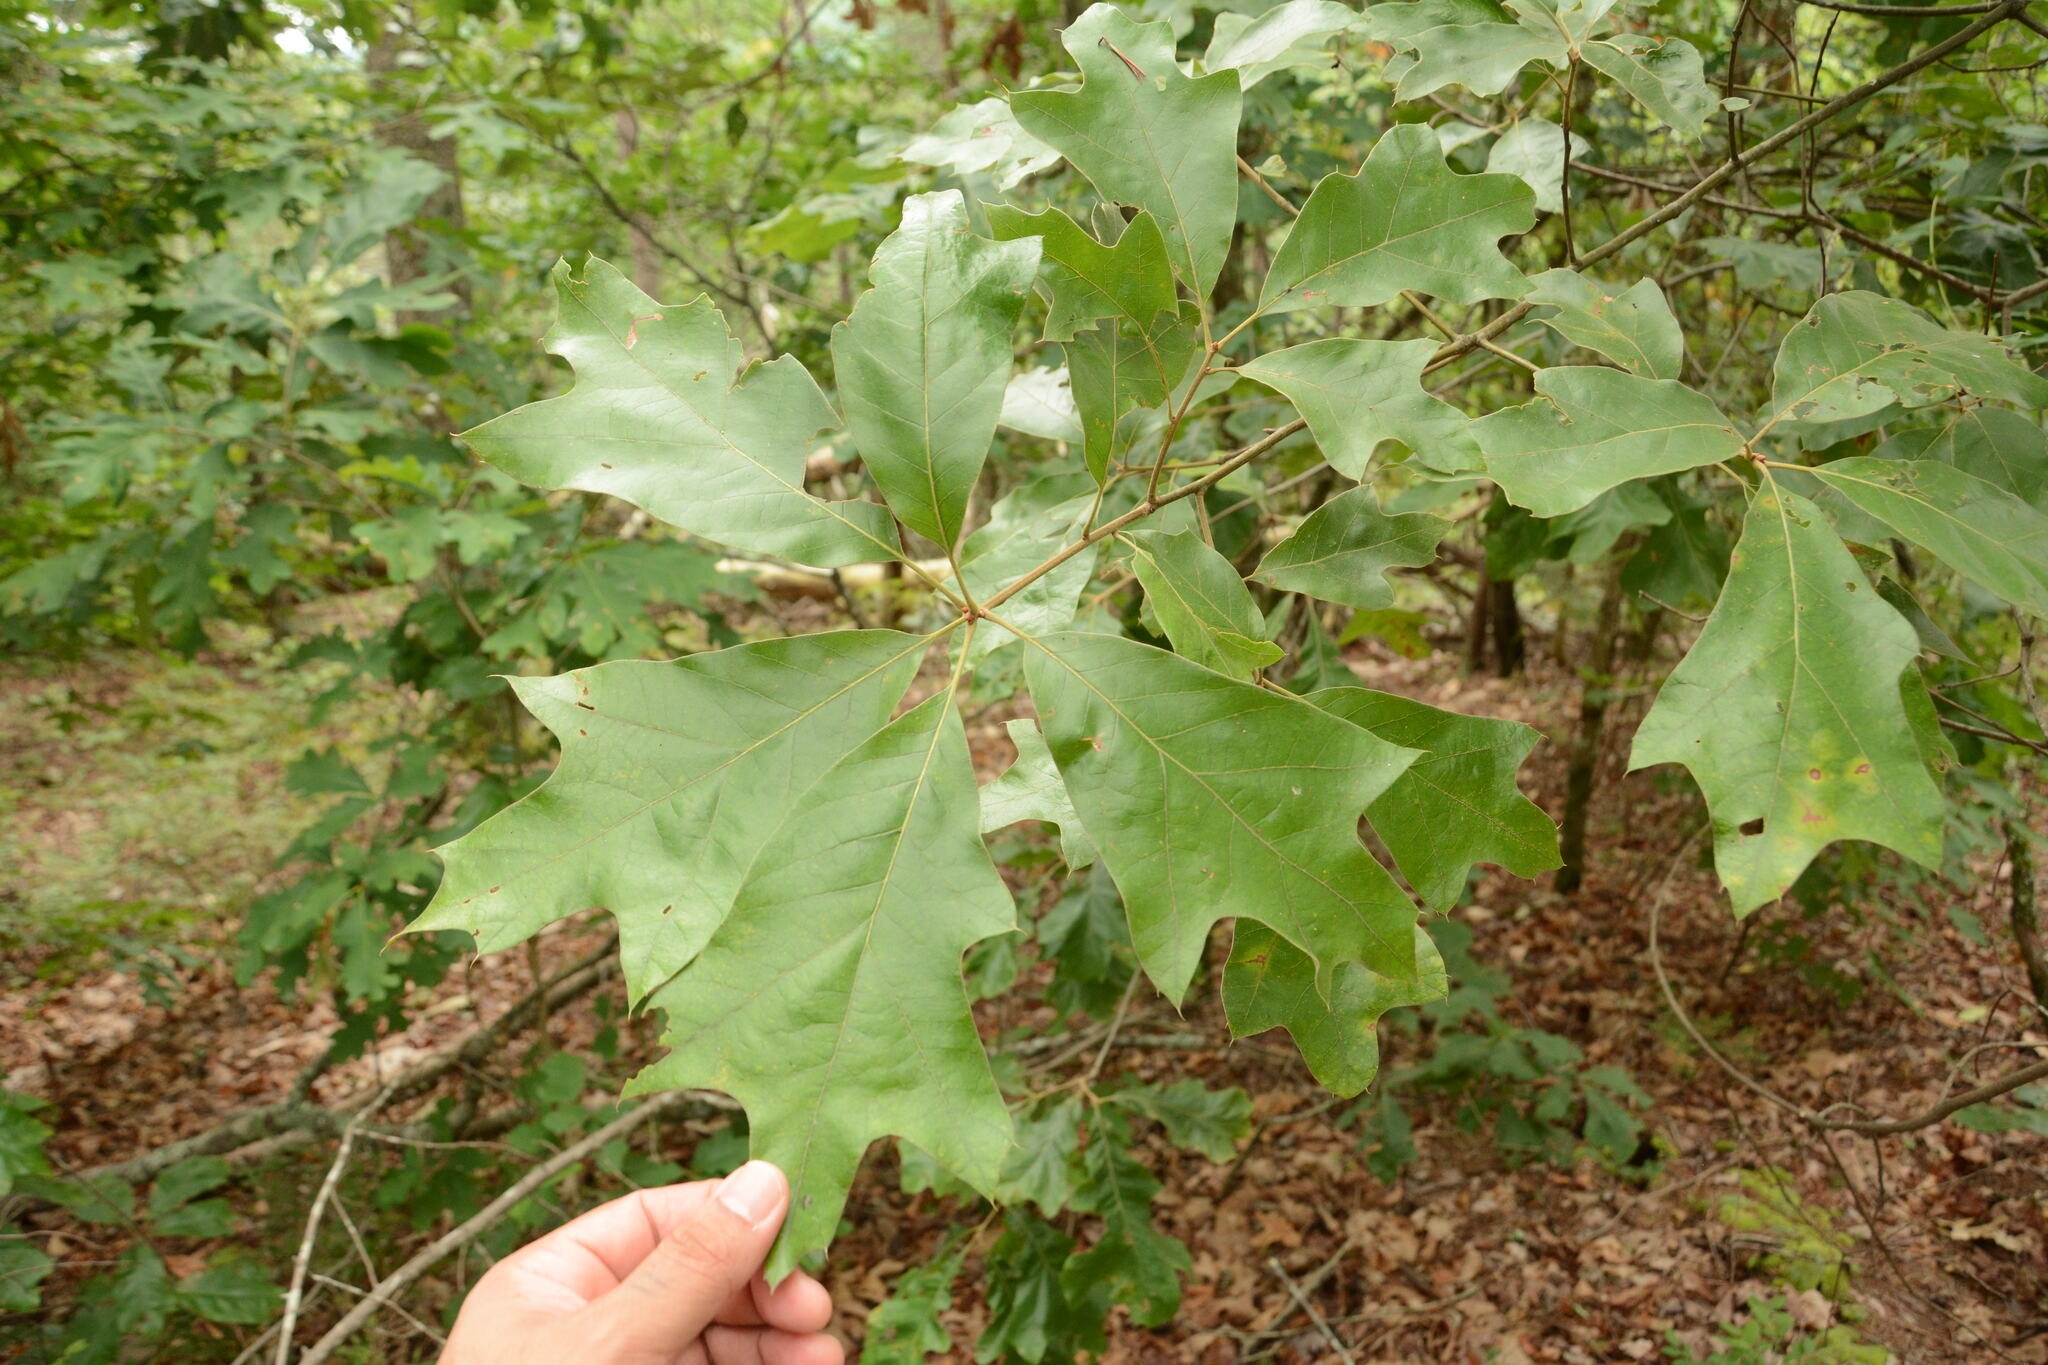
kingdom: Plantae
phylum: Tracheophyta
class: Magnoliopsida
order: Fagales
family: Fagaceae
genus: Quercus
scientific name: Quercus falcata
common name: Southern red oak
